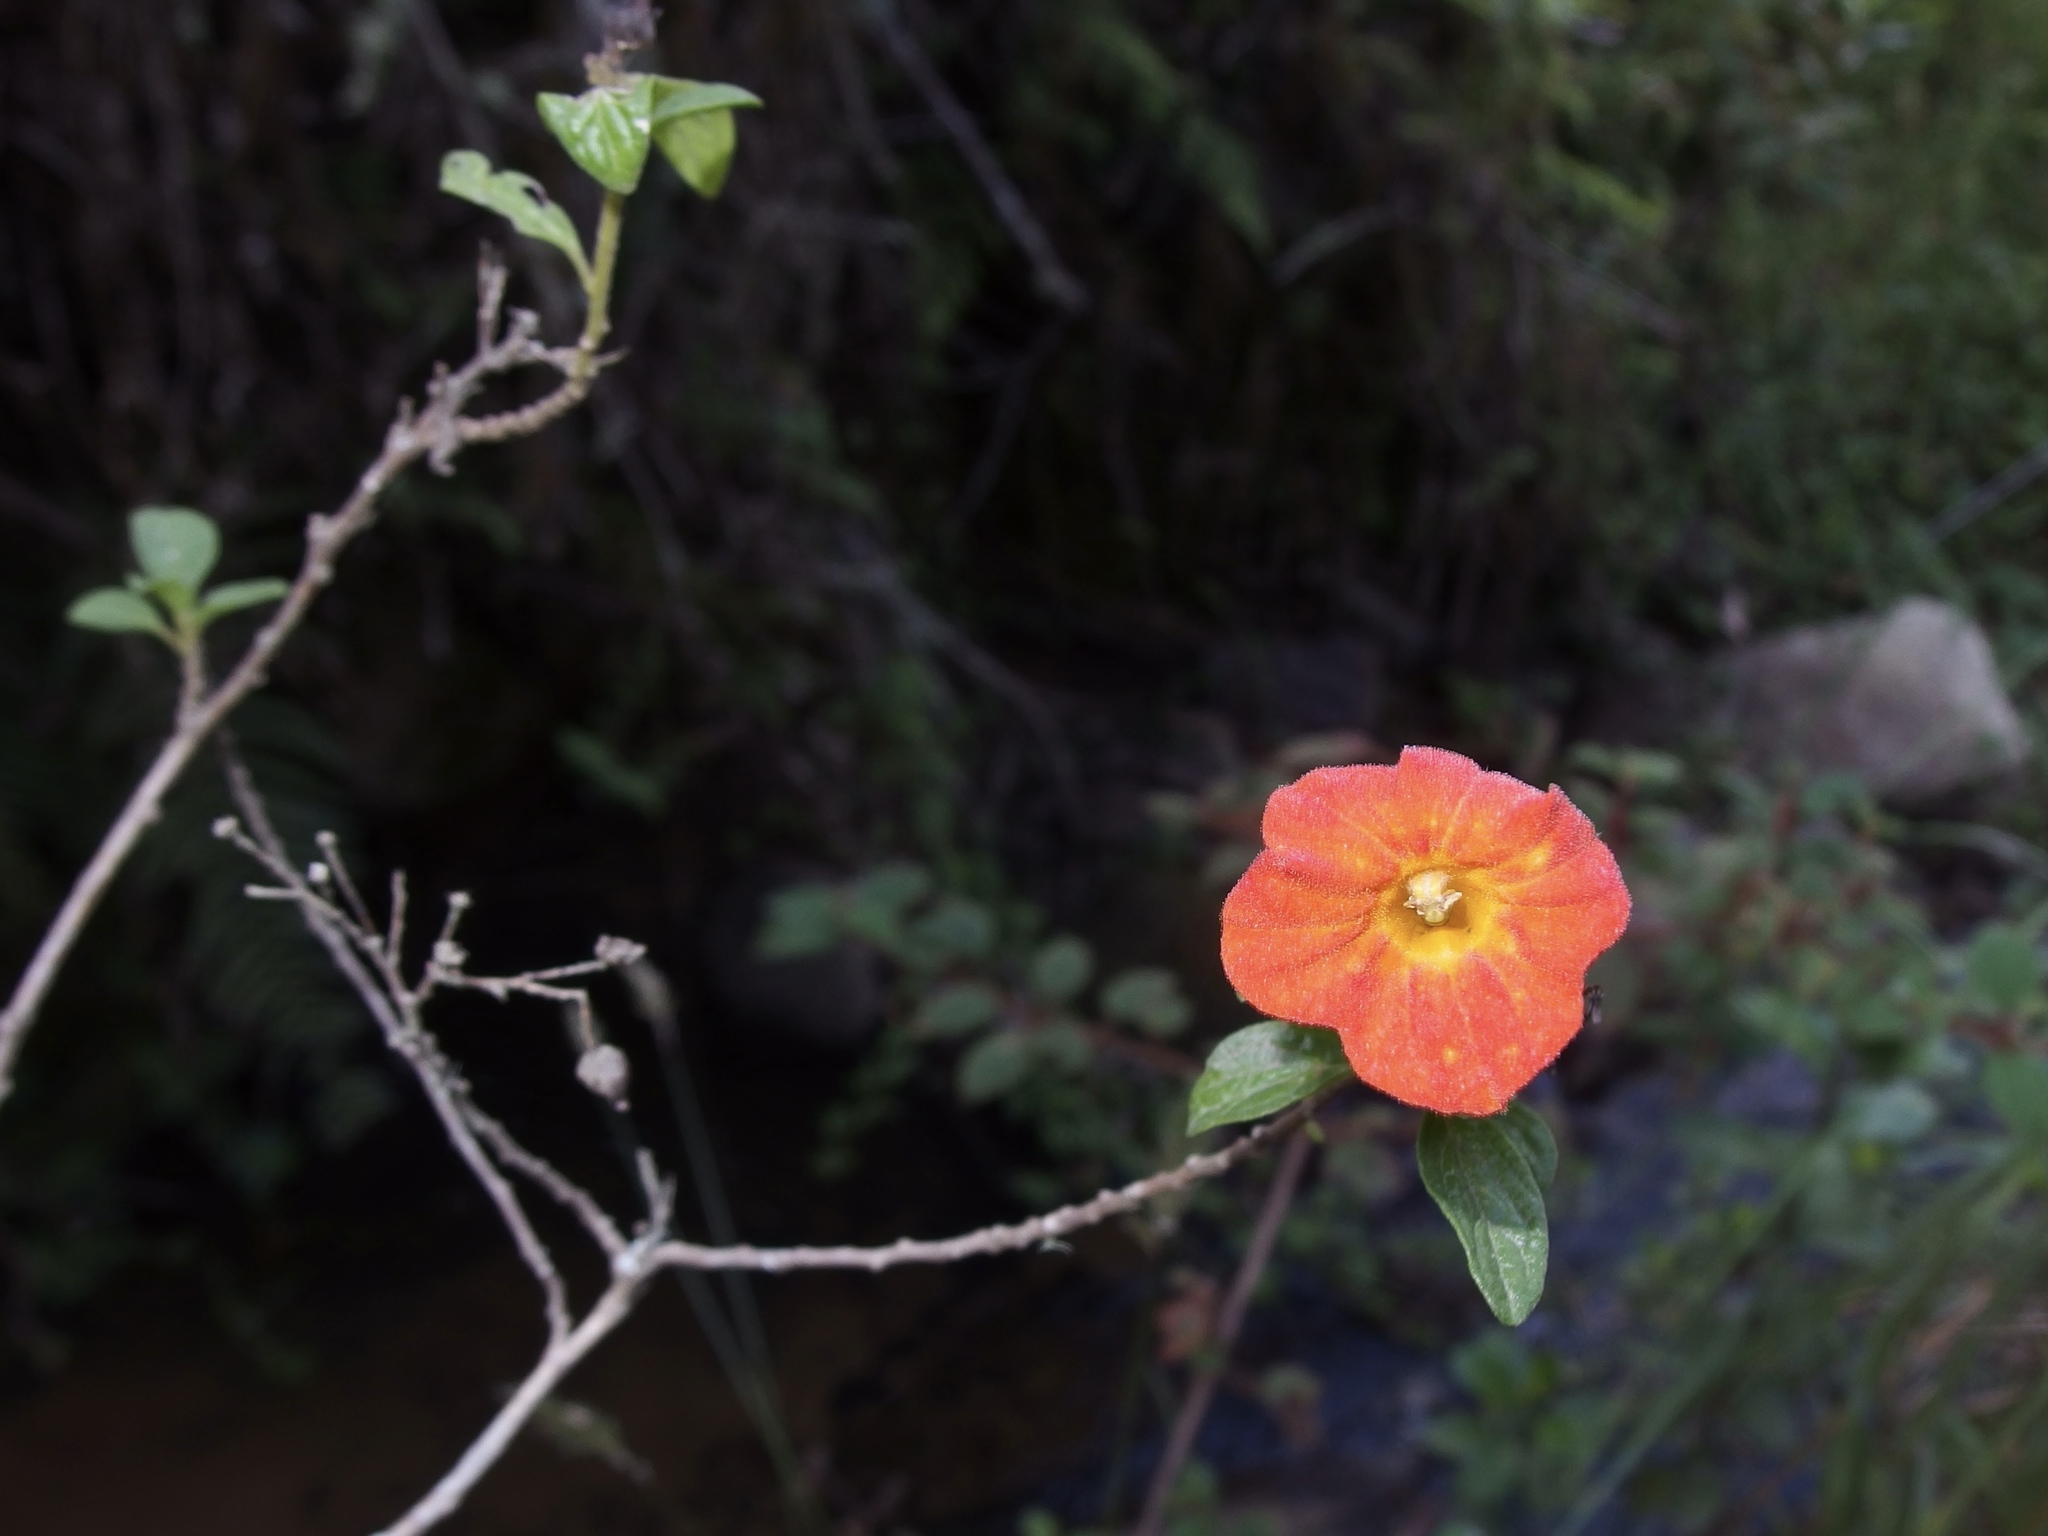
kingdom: Plantae
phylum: Tracheophyta
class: Magnoliopsida
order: Solanales
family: Solanaceae
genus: Streptosolen
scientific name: Streptosolen jamesonii
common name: Marmalade bush
